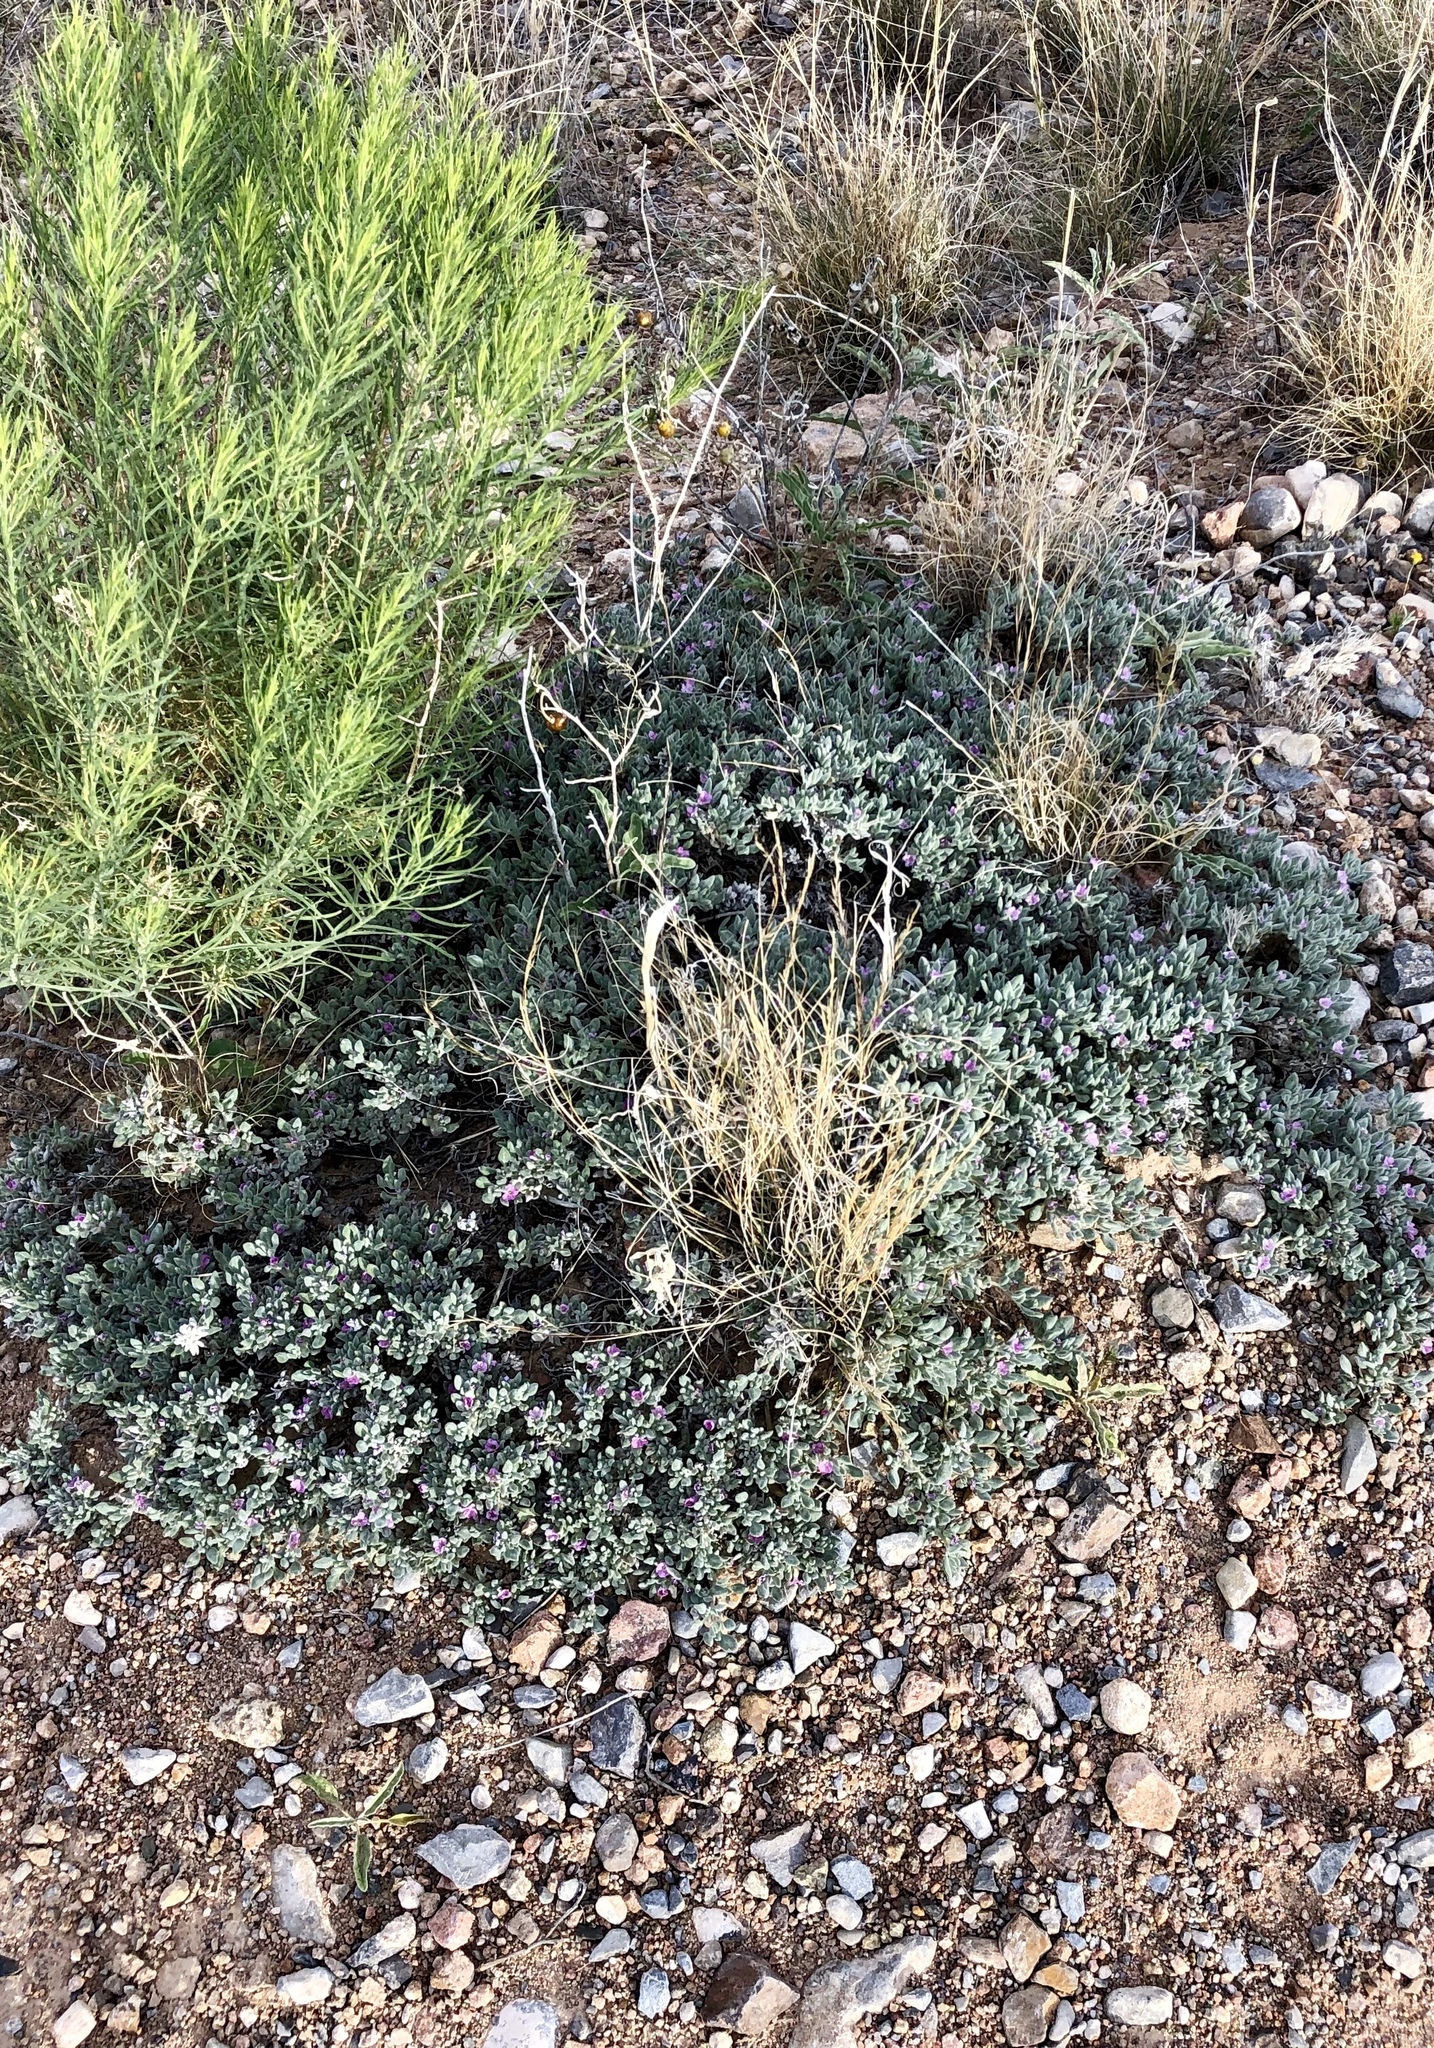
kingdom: Plantae
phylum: Tracheophyta
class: Magnoliopsida
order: Boraginales
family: Ehretiaceae
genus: Tiquilia
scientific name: Tiquilia canescens
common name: Hairy tiquilia
